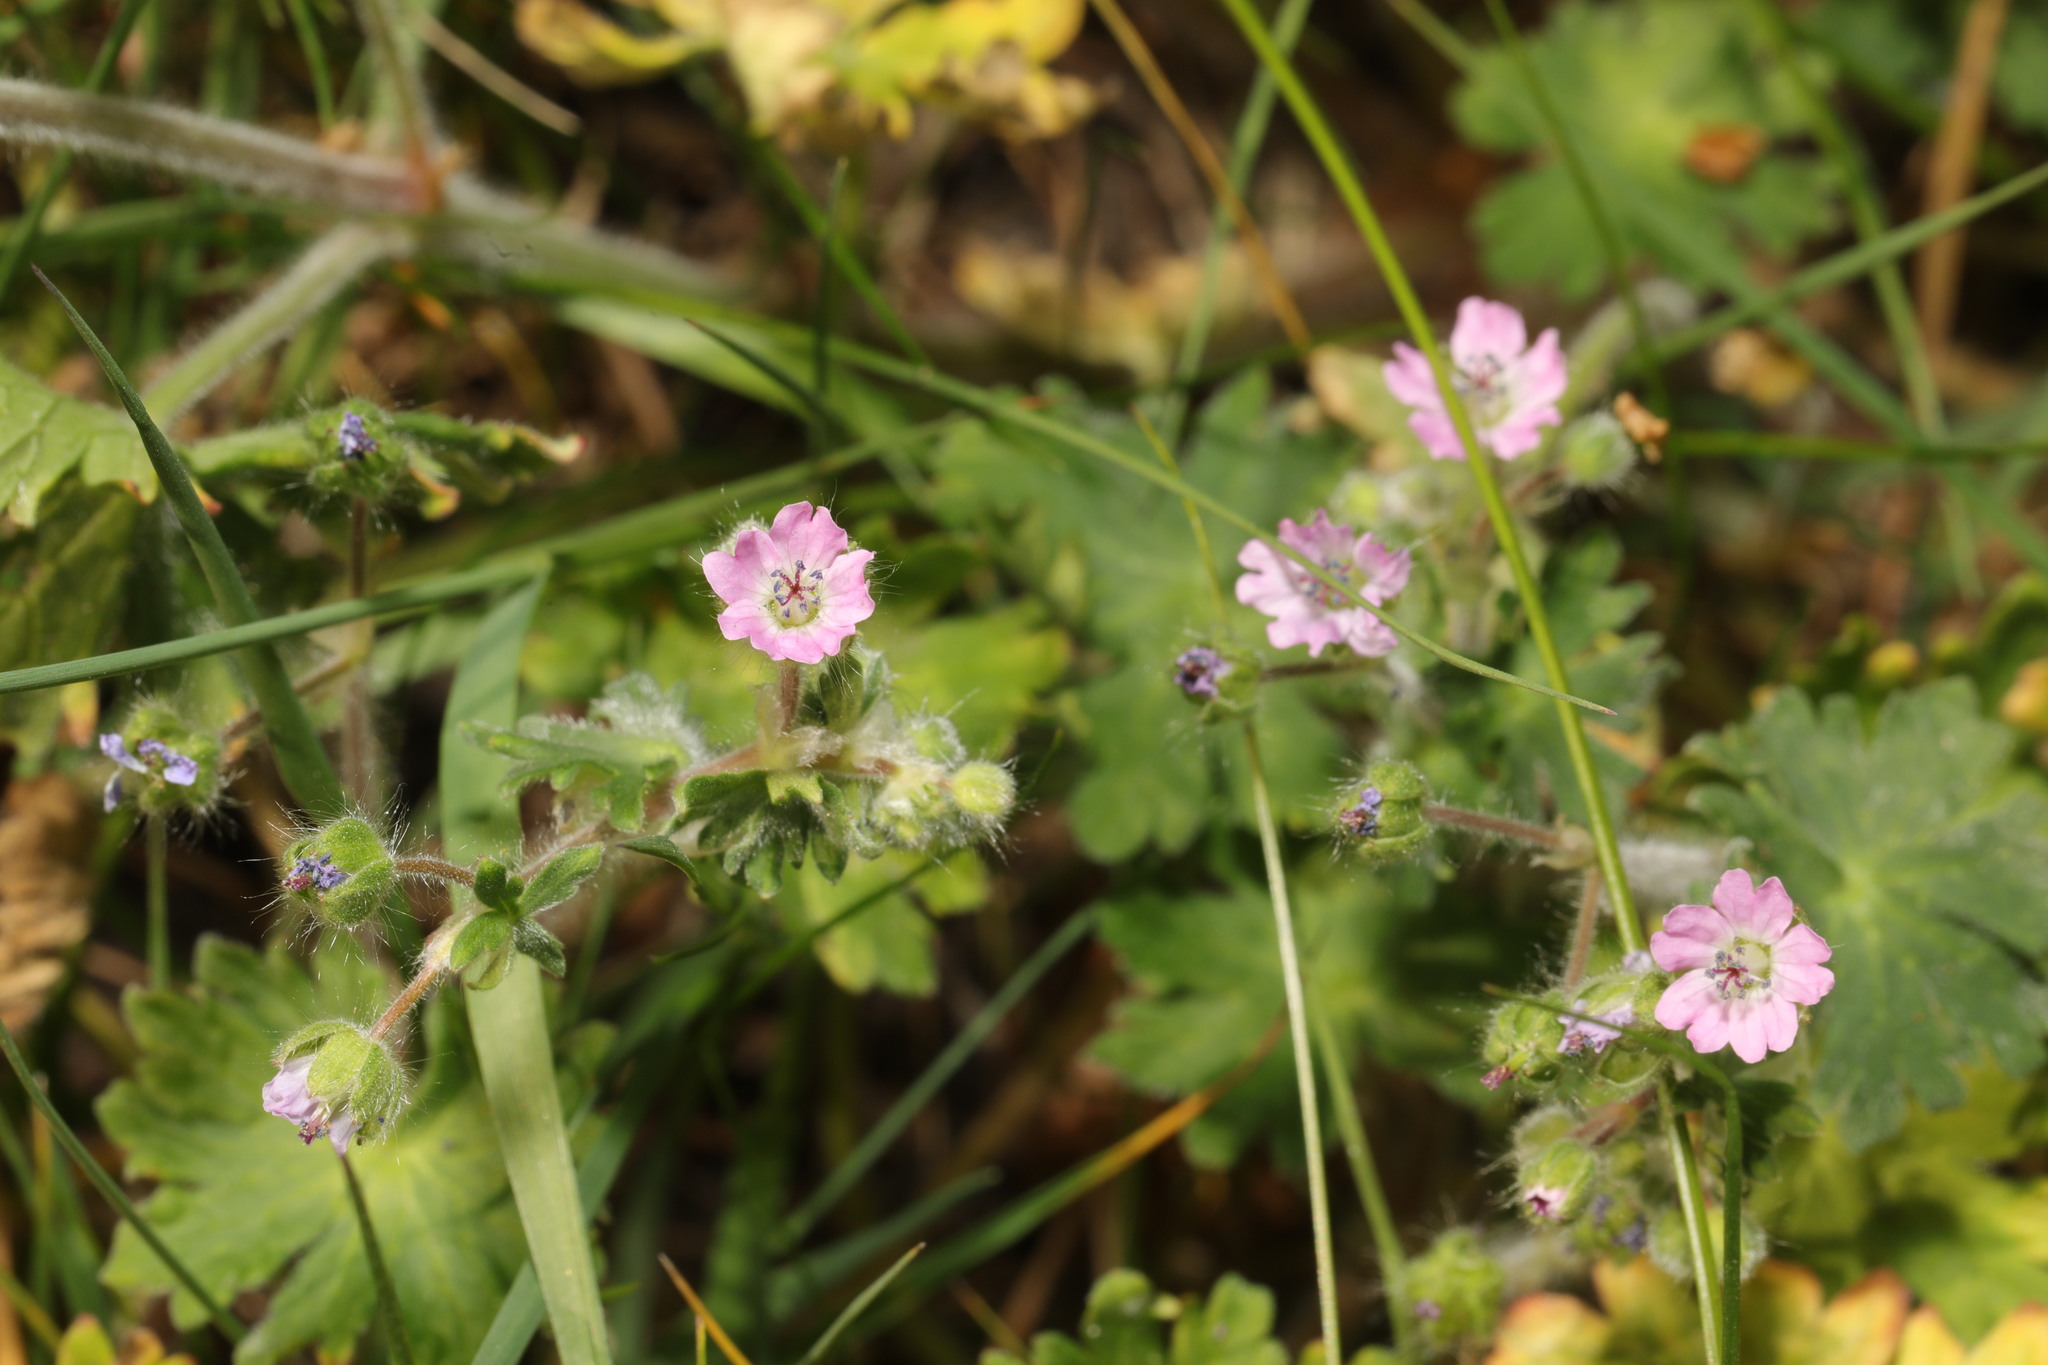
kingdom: Plantae
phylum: Tracheophyta
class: Magnoliopsida
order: Geraniales
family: Geraniaceae
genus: Geranium
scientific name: Geranium molle
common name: Dove's-foot crane's-bill
